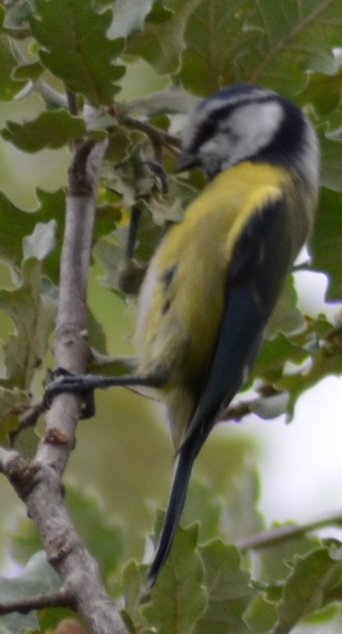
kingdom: Animalia
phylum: Chordata
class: Aves
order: Passeriformes
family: Paridae
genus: Cyanistes
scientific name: Cyanistes caeruleus
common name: Eurasian blue tit
